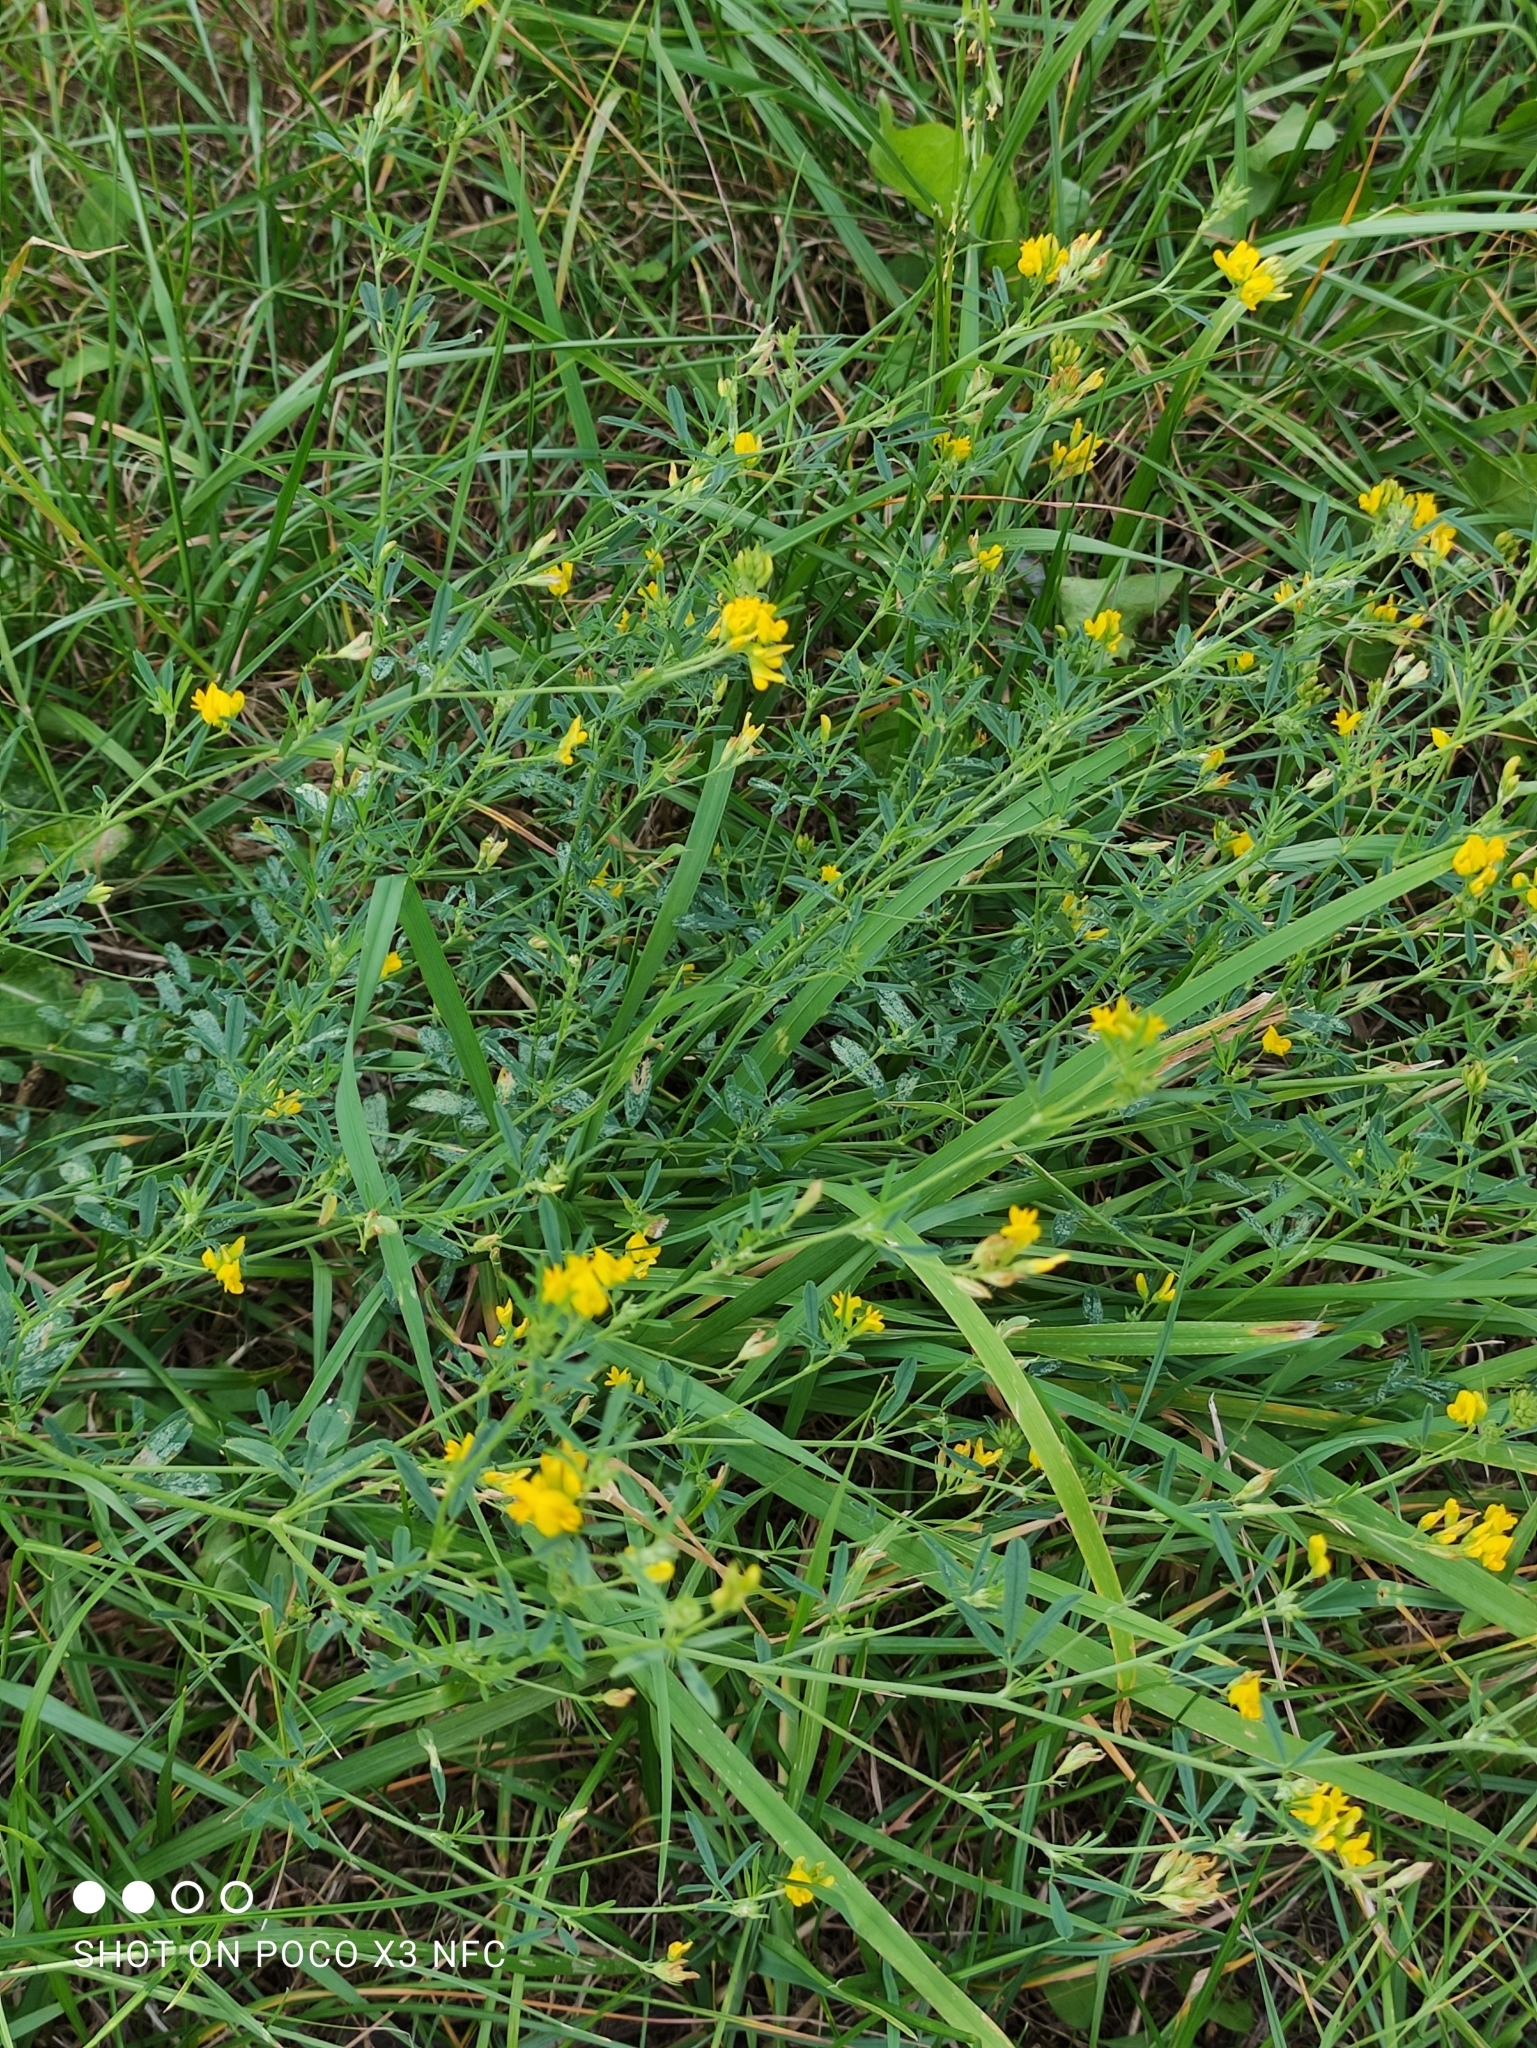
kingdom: Plantae
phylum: Tracheophyta
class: Magnoliopsida
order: Fabales
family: Fabaceae
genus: Medicago
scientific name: Medicago falcata
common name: Sickle medick
